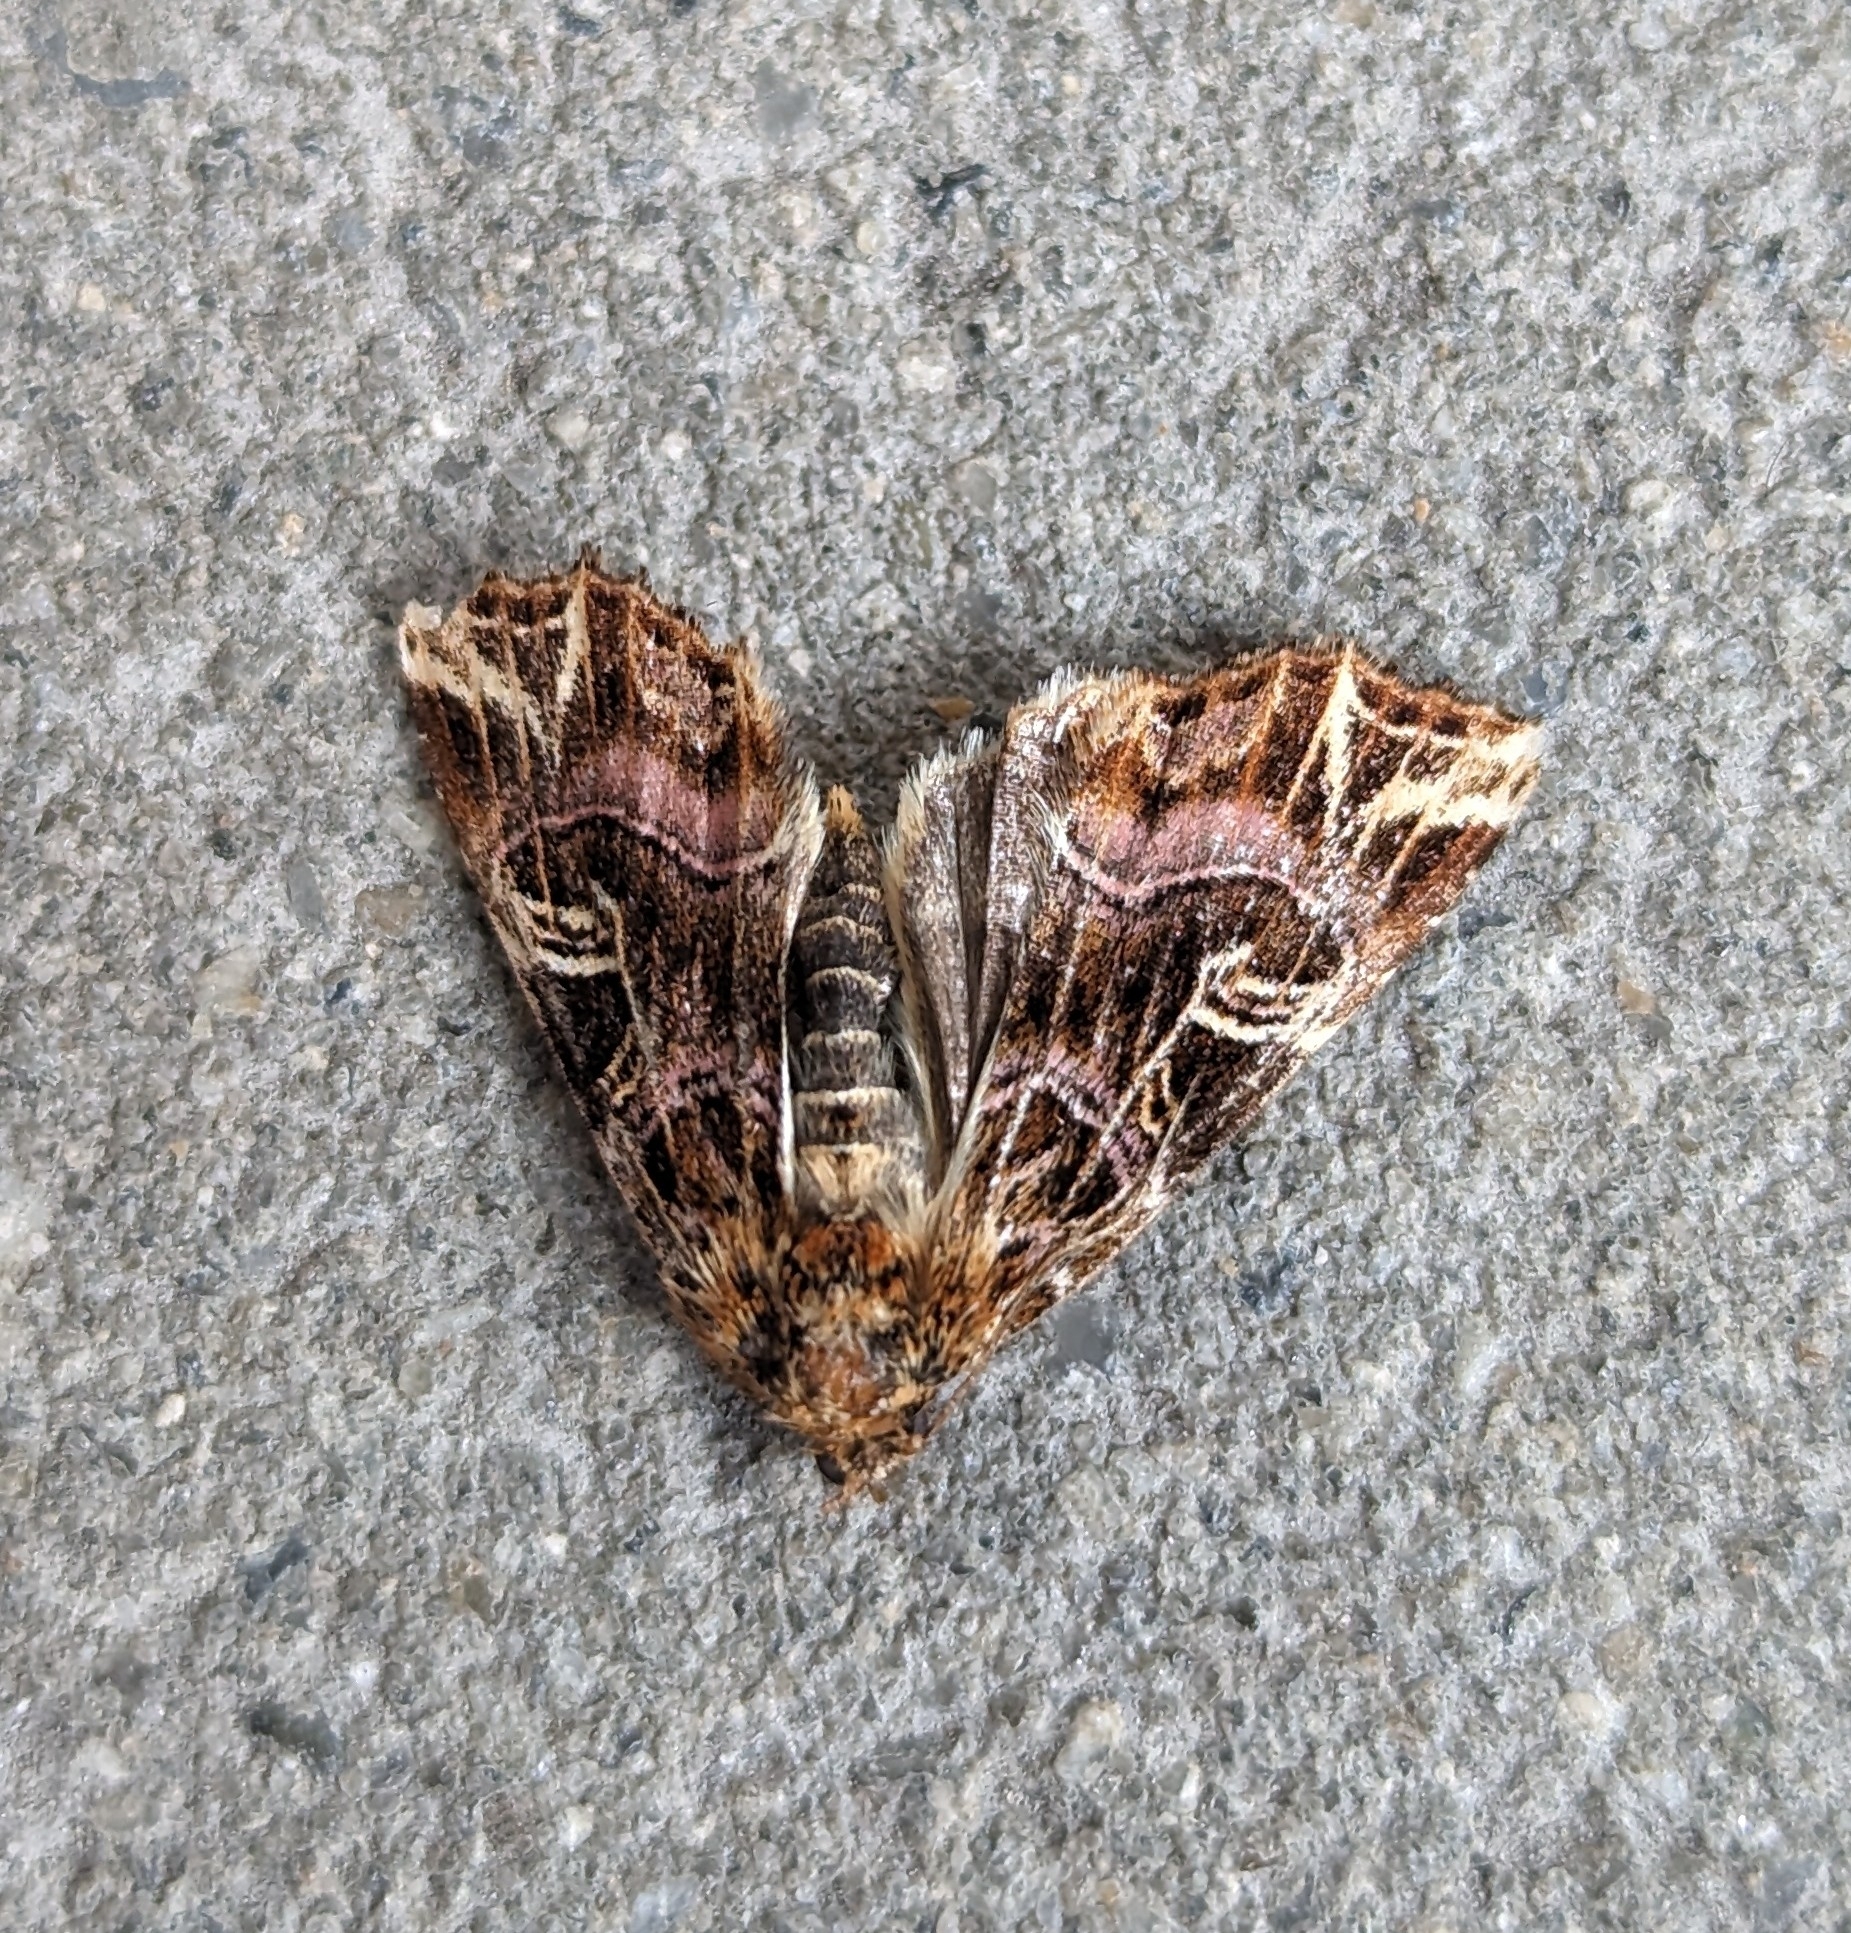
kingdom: Animalia
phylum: Arthropoda
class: Insecta
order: Lepidoptera
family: Noctuidae
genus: Callopistria
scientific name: Callopistria juventina
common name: Latin
